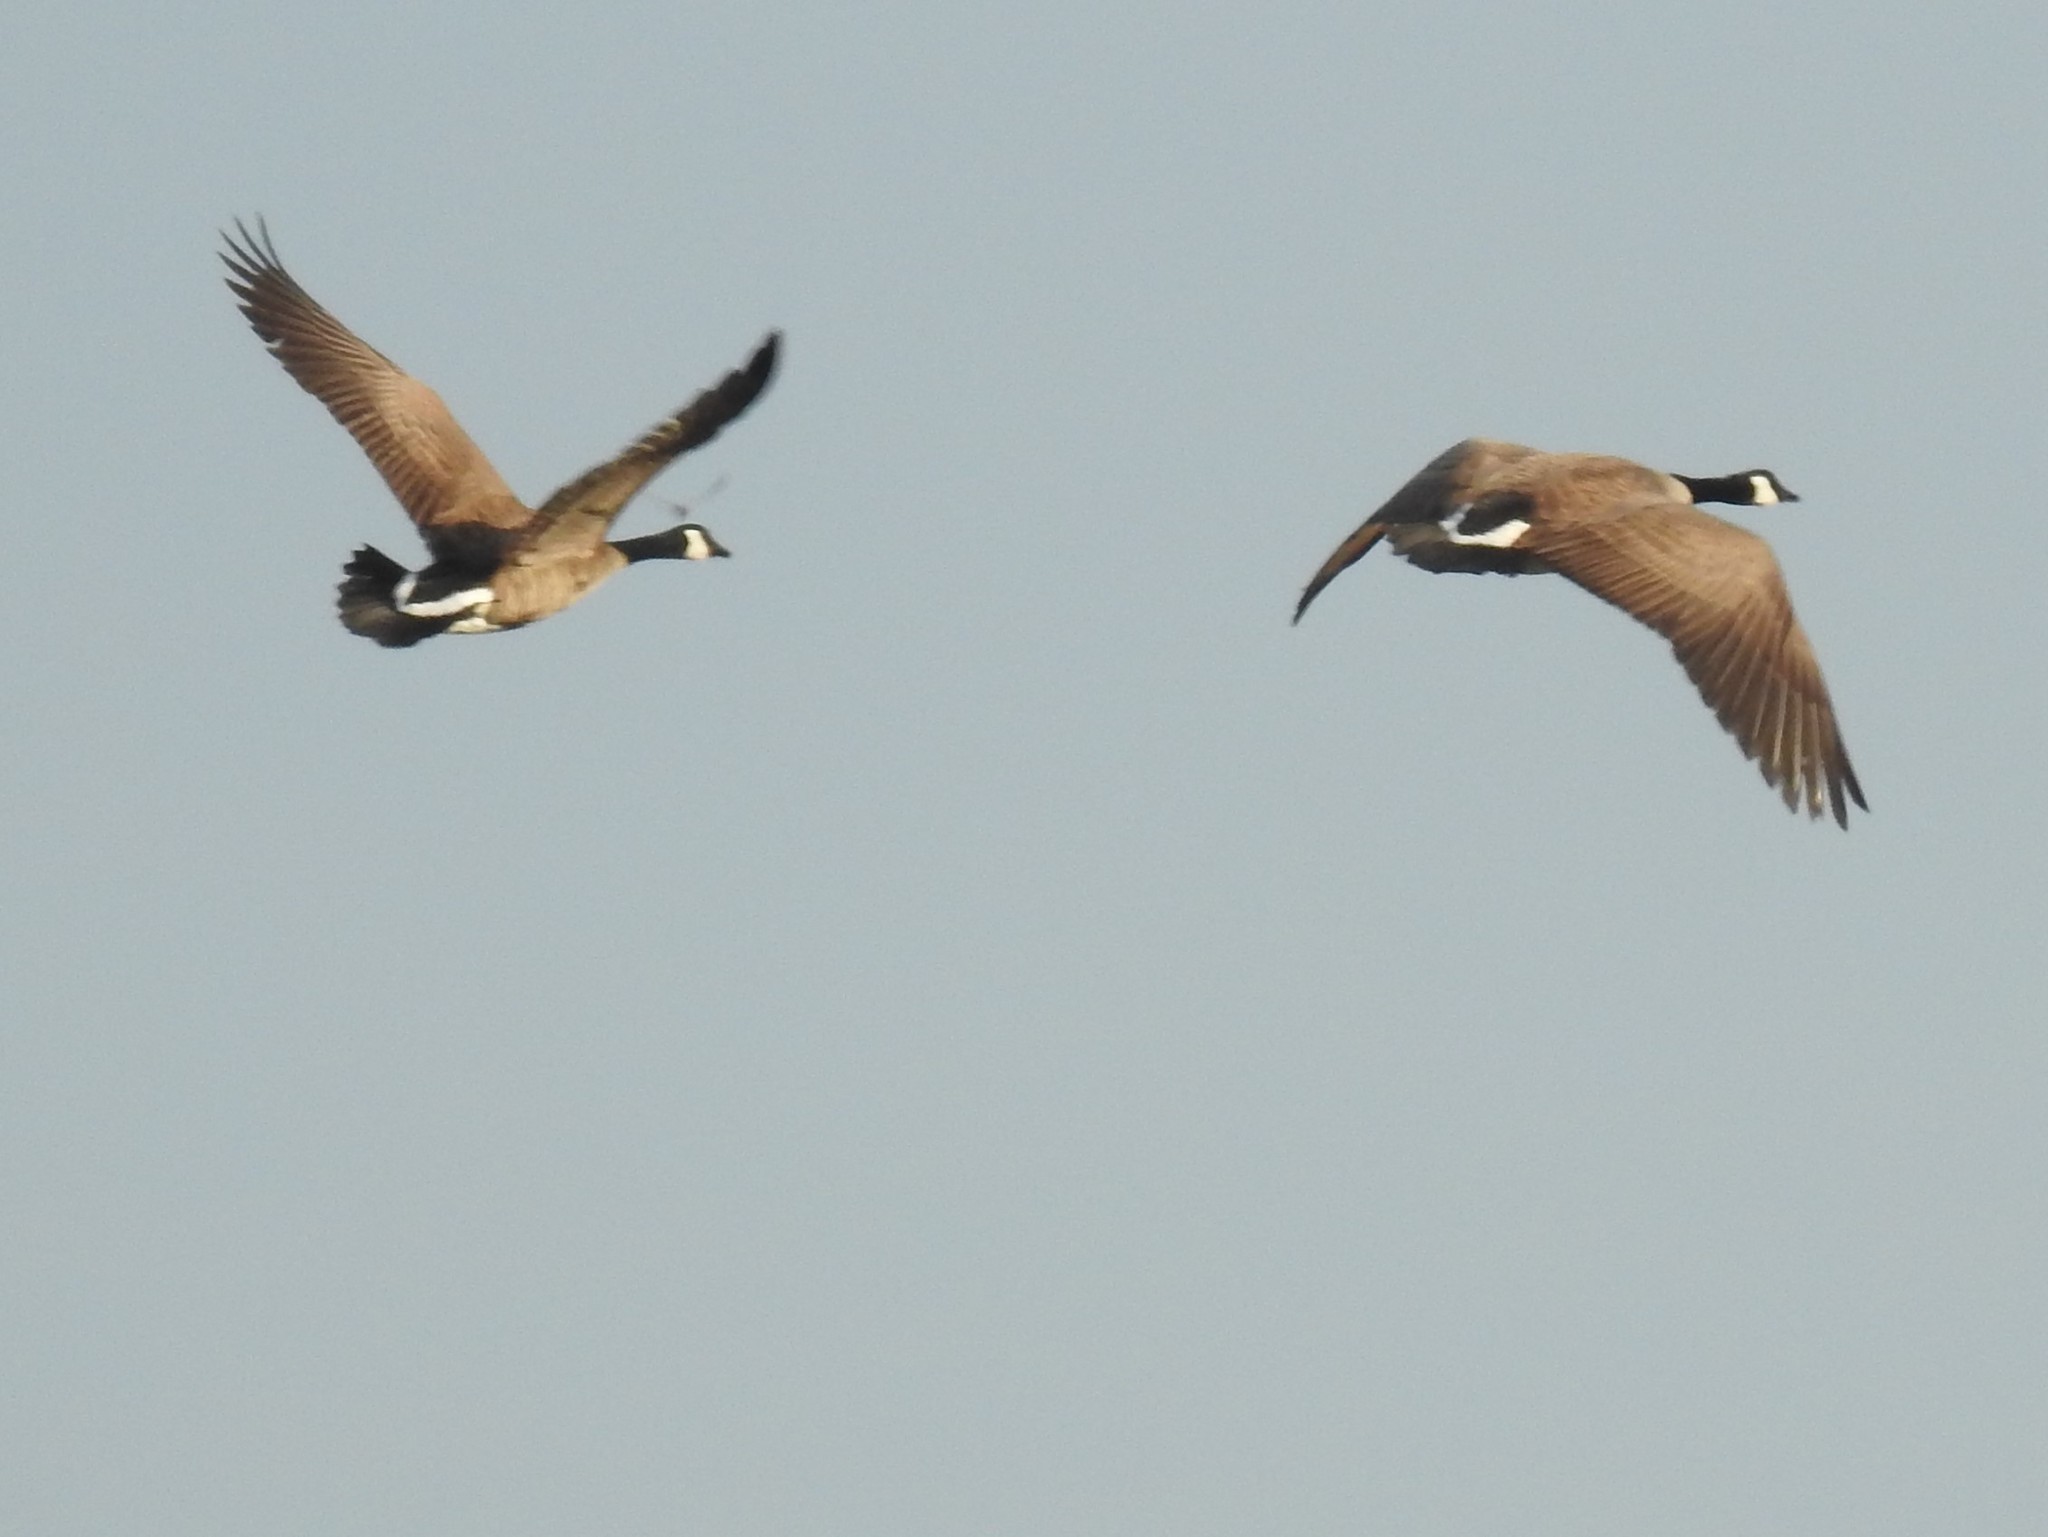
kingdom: Animalia
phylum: Chordata
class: Aves
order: Anseriformes
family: Anatidae
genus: Branta
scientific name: Branta canadensis
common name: Canada goose
